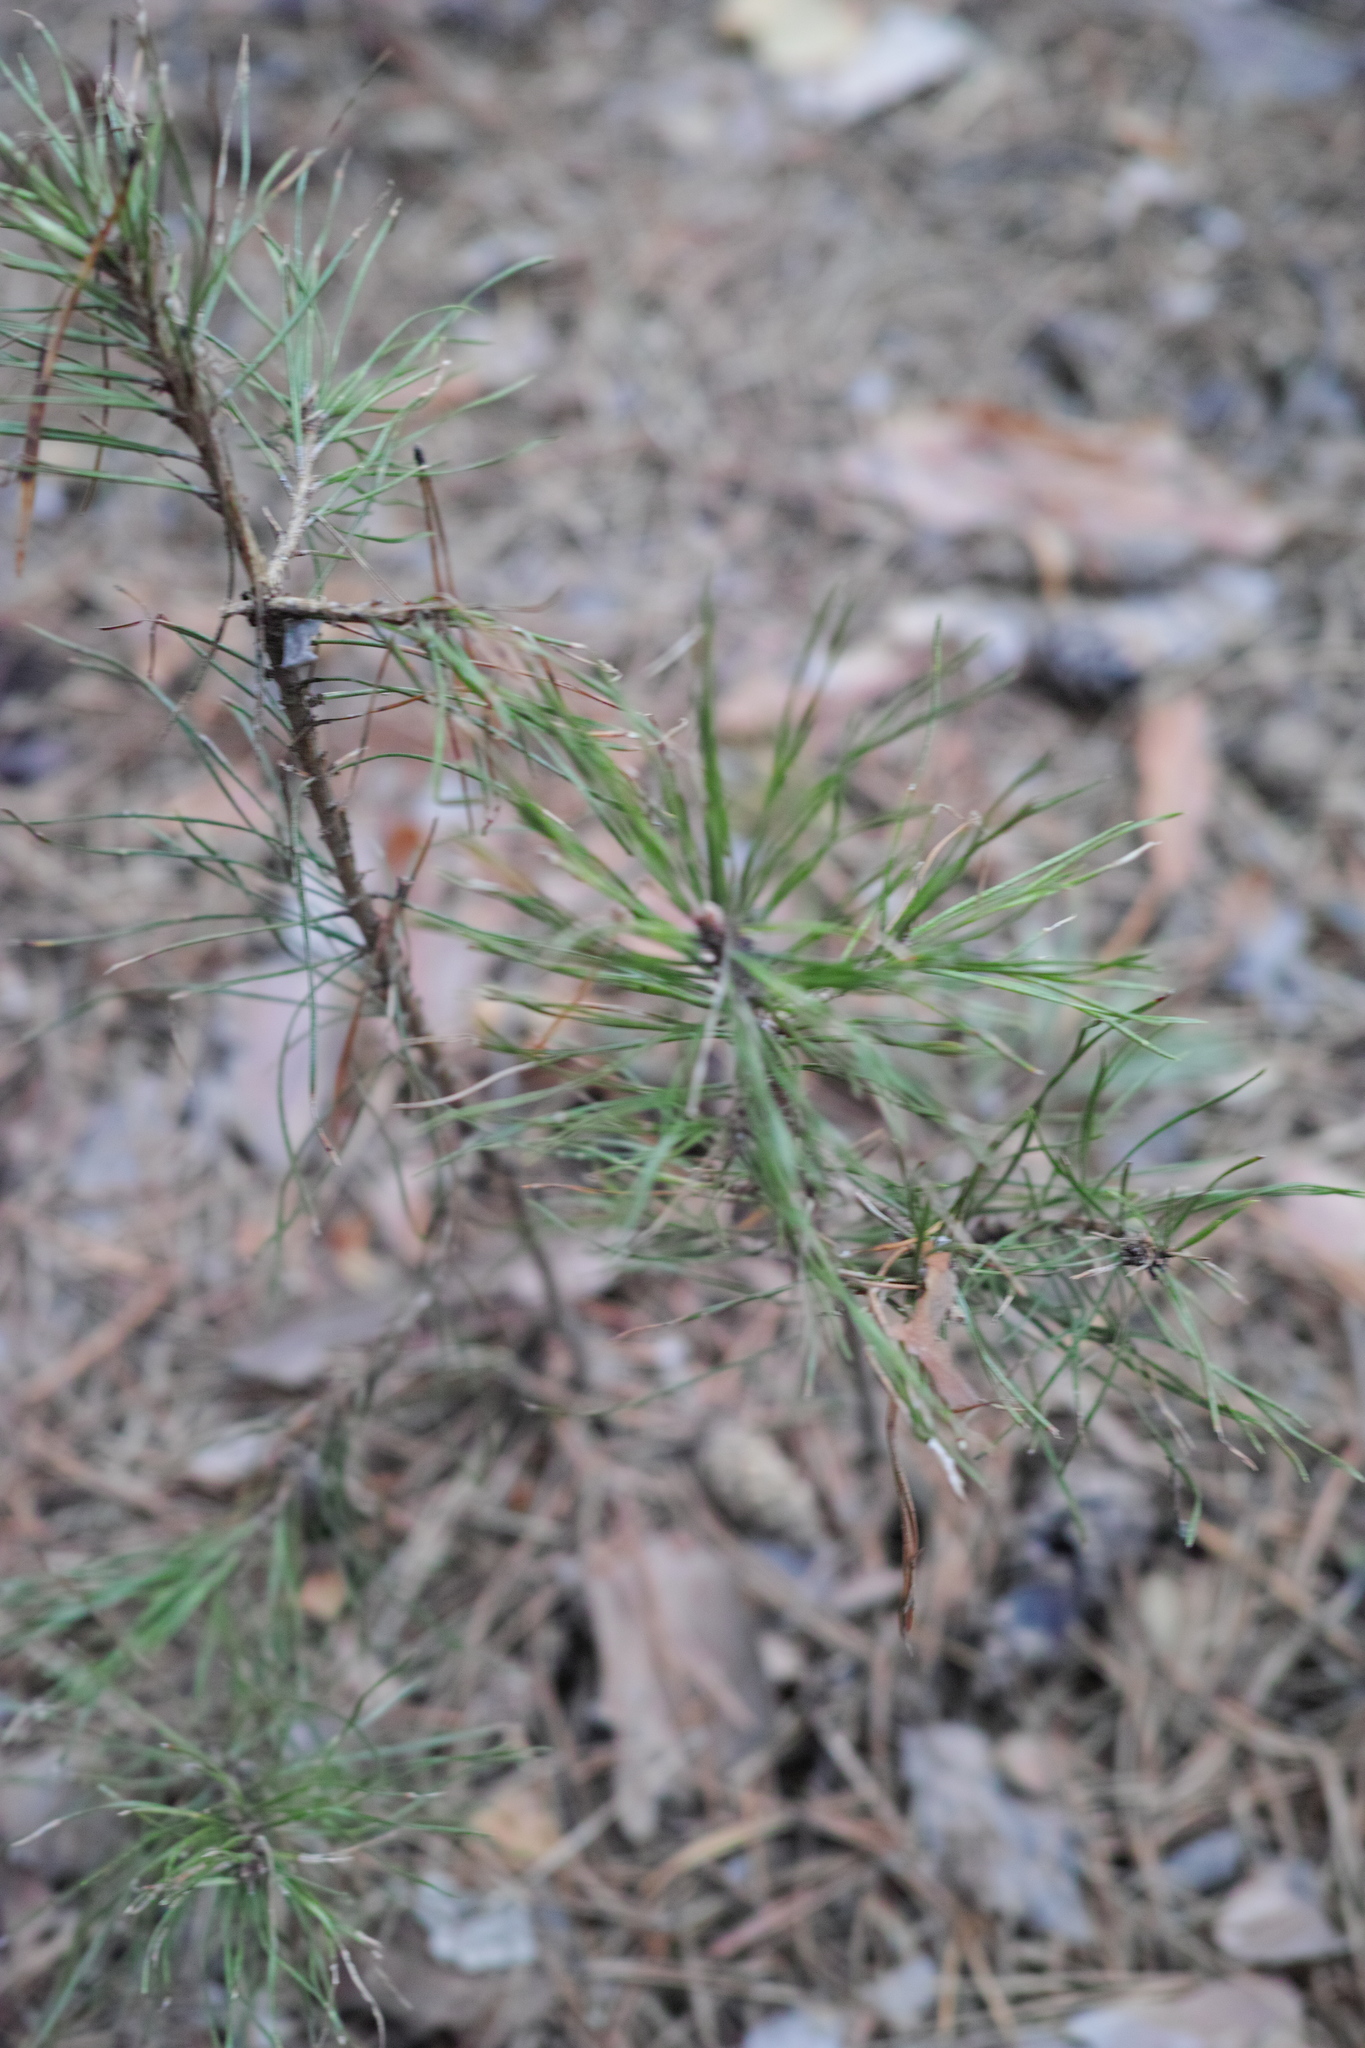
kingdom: Plantae
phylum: Tracheophyta
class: Pinopsida
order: Pinales
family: Pinaceae
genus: Pinus
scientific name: Pinus sylvestris
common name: Scots pine
